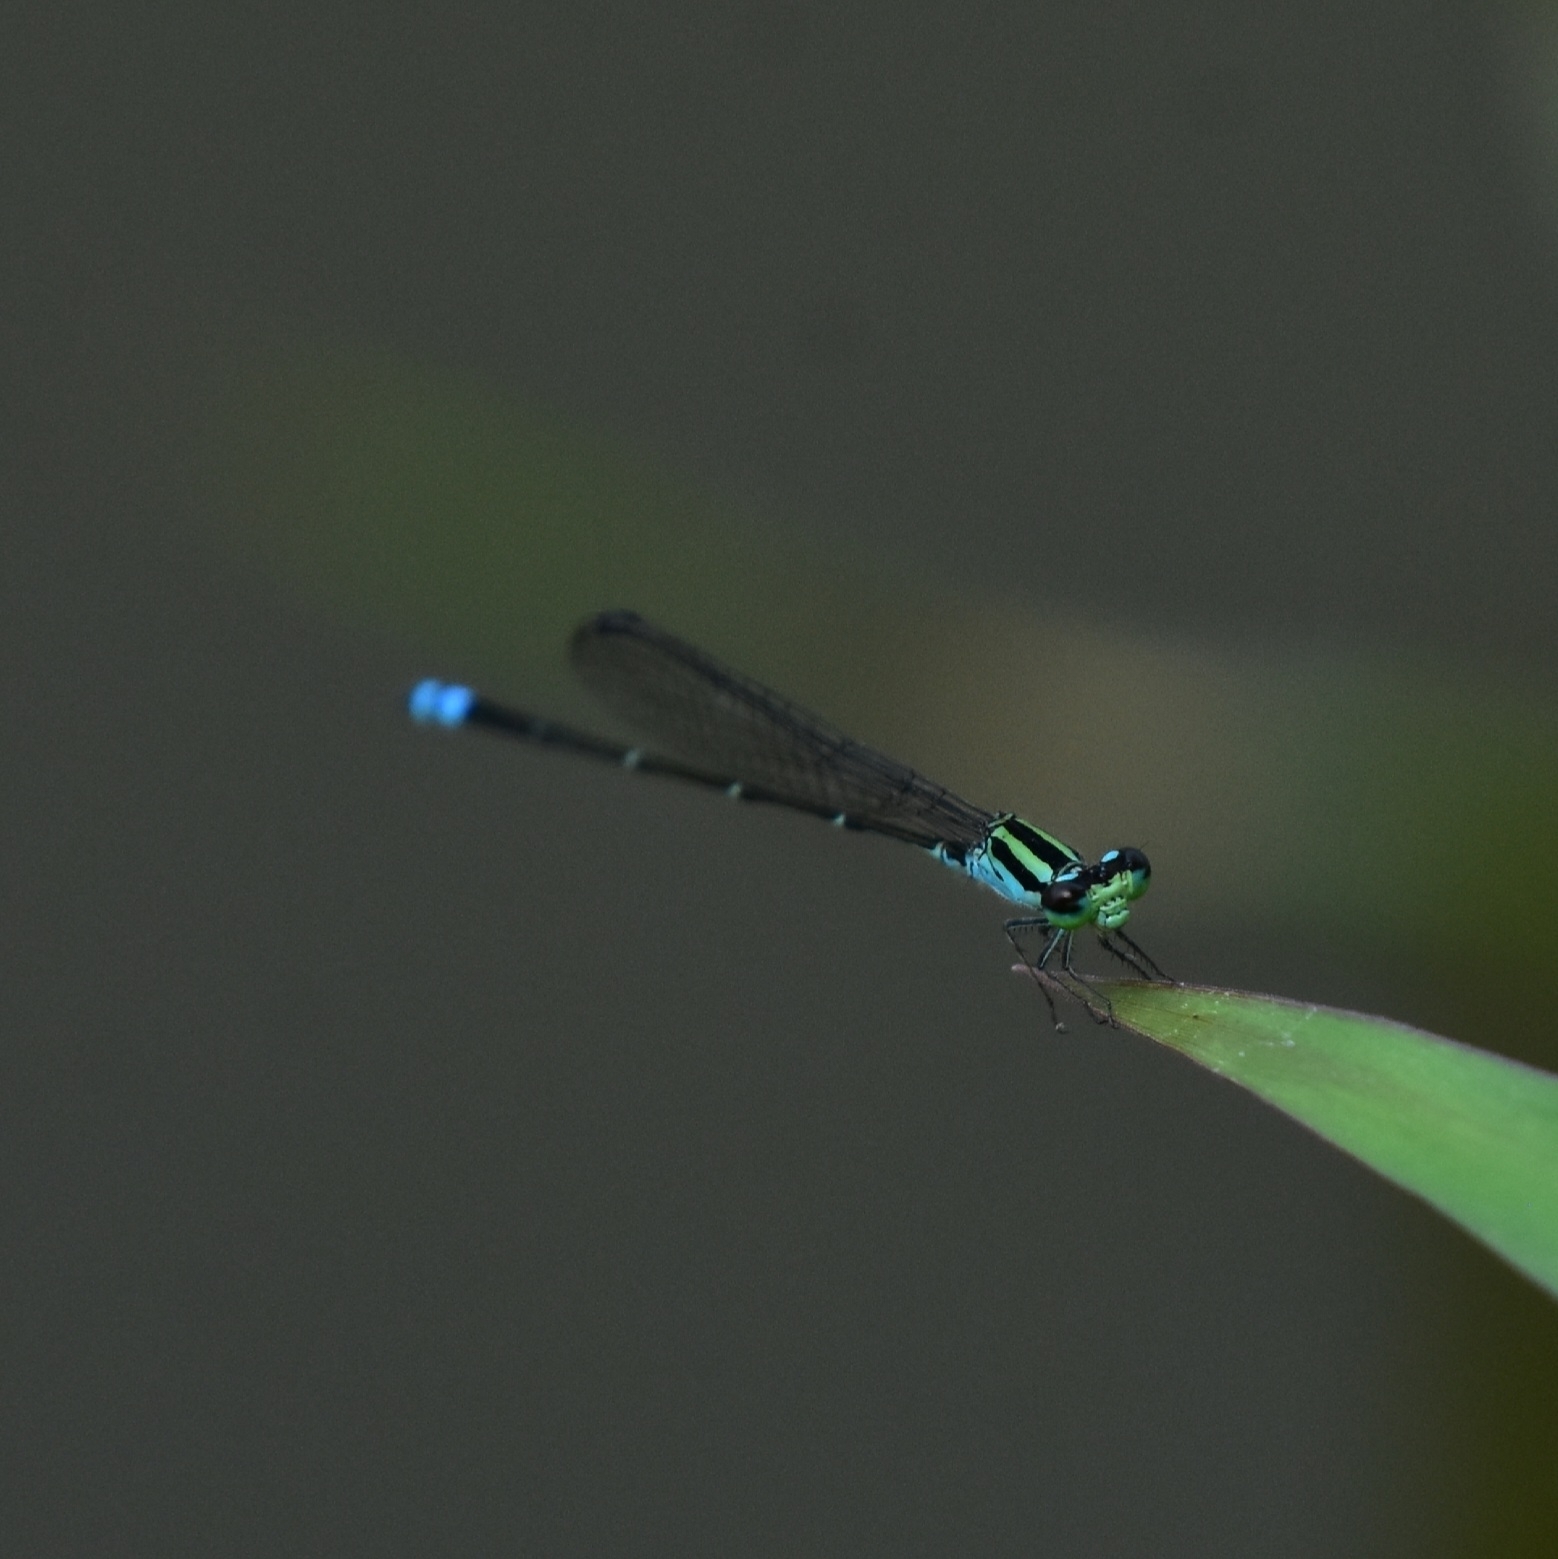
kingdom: Animalia
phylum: Arthropoda
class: Insecta
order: Odonata
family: Coenagrionidae
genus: Pseudagrion
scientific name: Pseudagrion indicum
